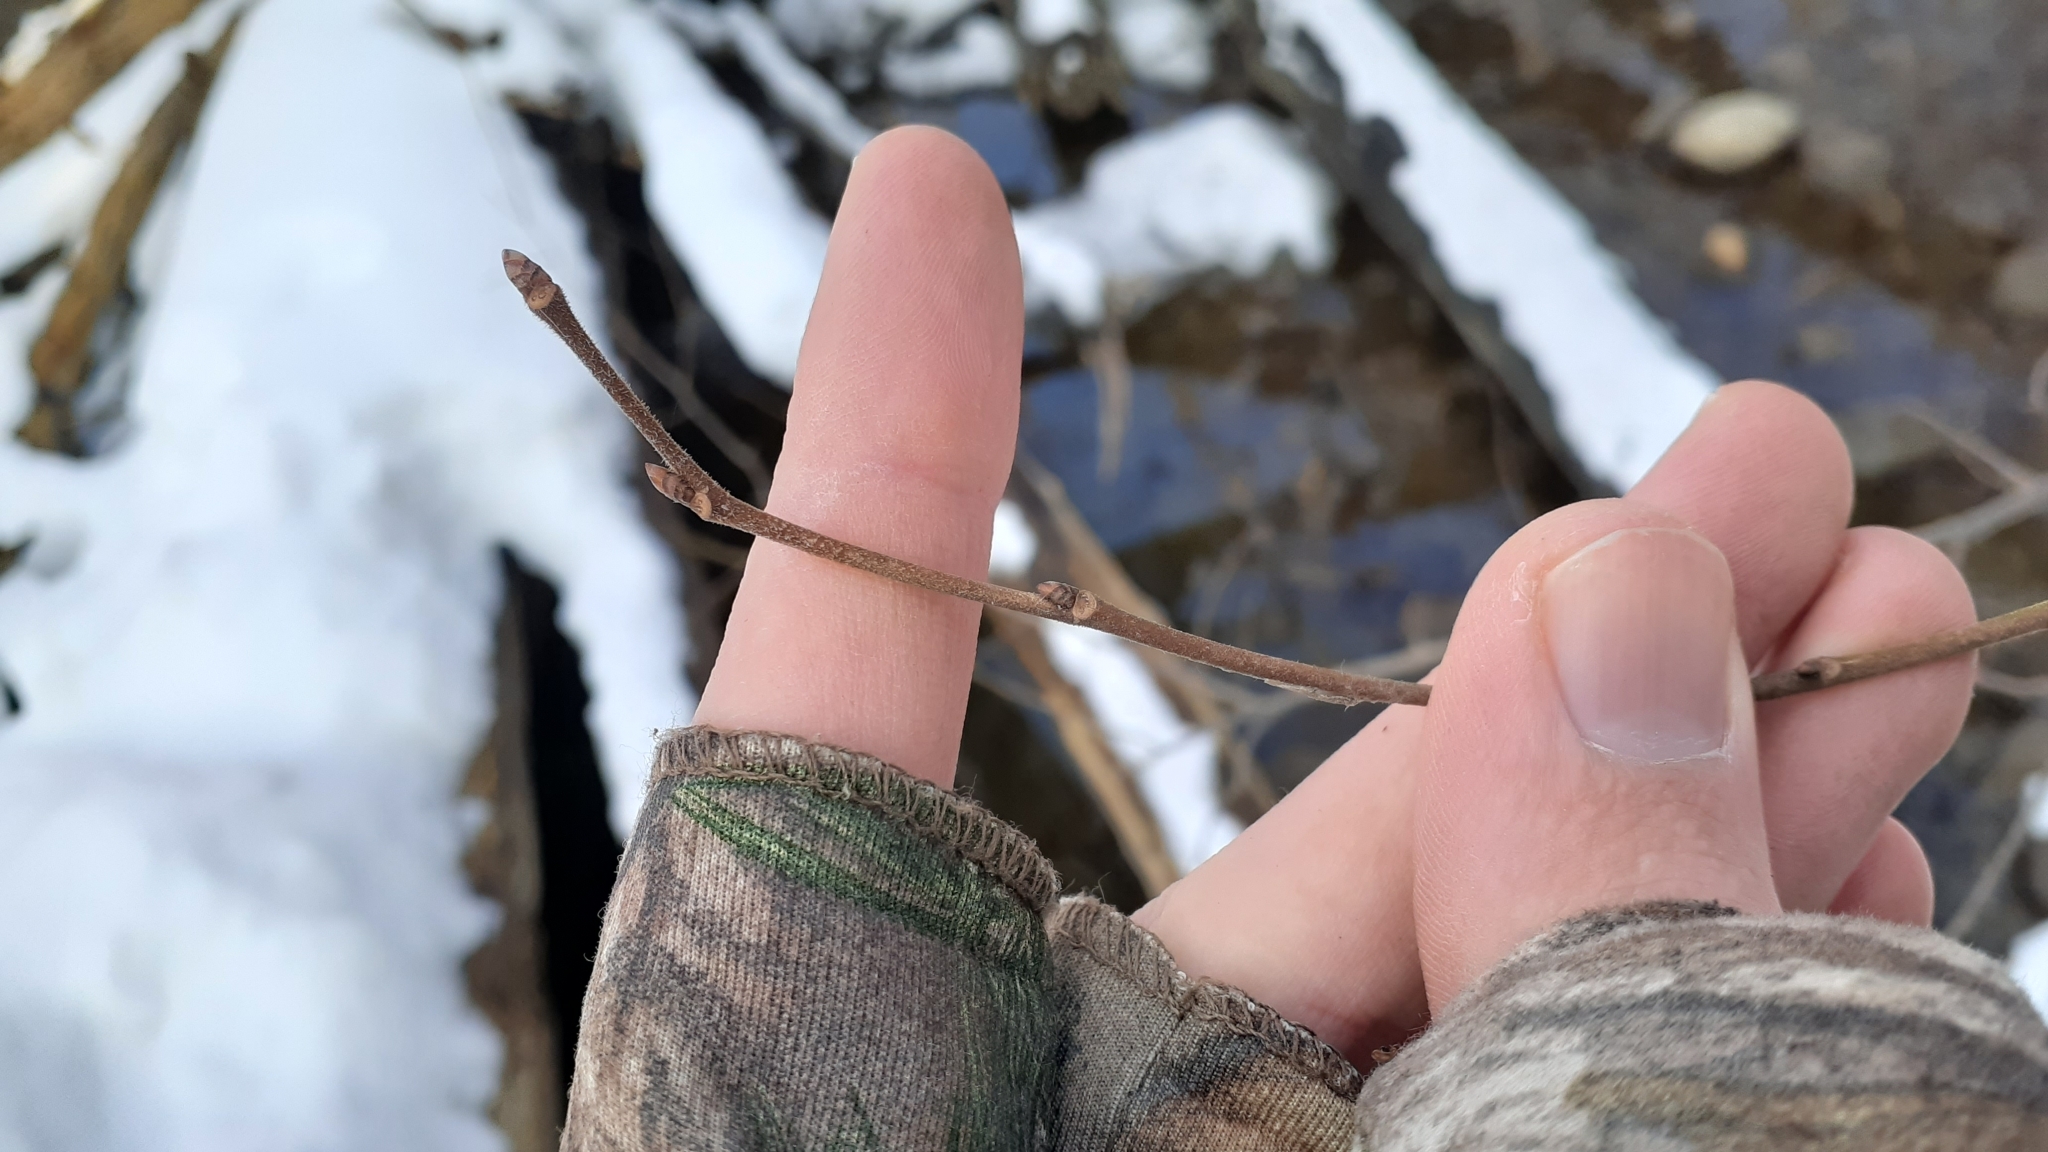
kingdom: Plantae
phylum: Tracheophyta
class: Magnoliopsida
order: Rosales
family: Ulmaceae
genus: Ulmus
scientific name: Ulmus americana
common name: American elm
